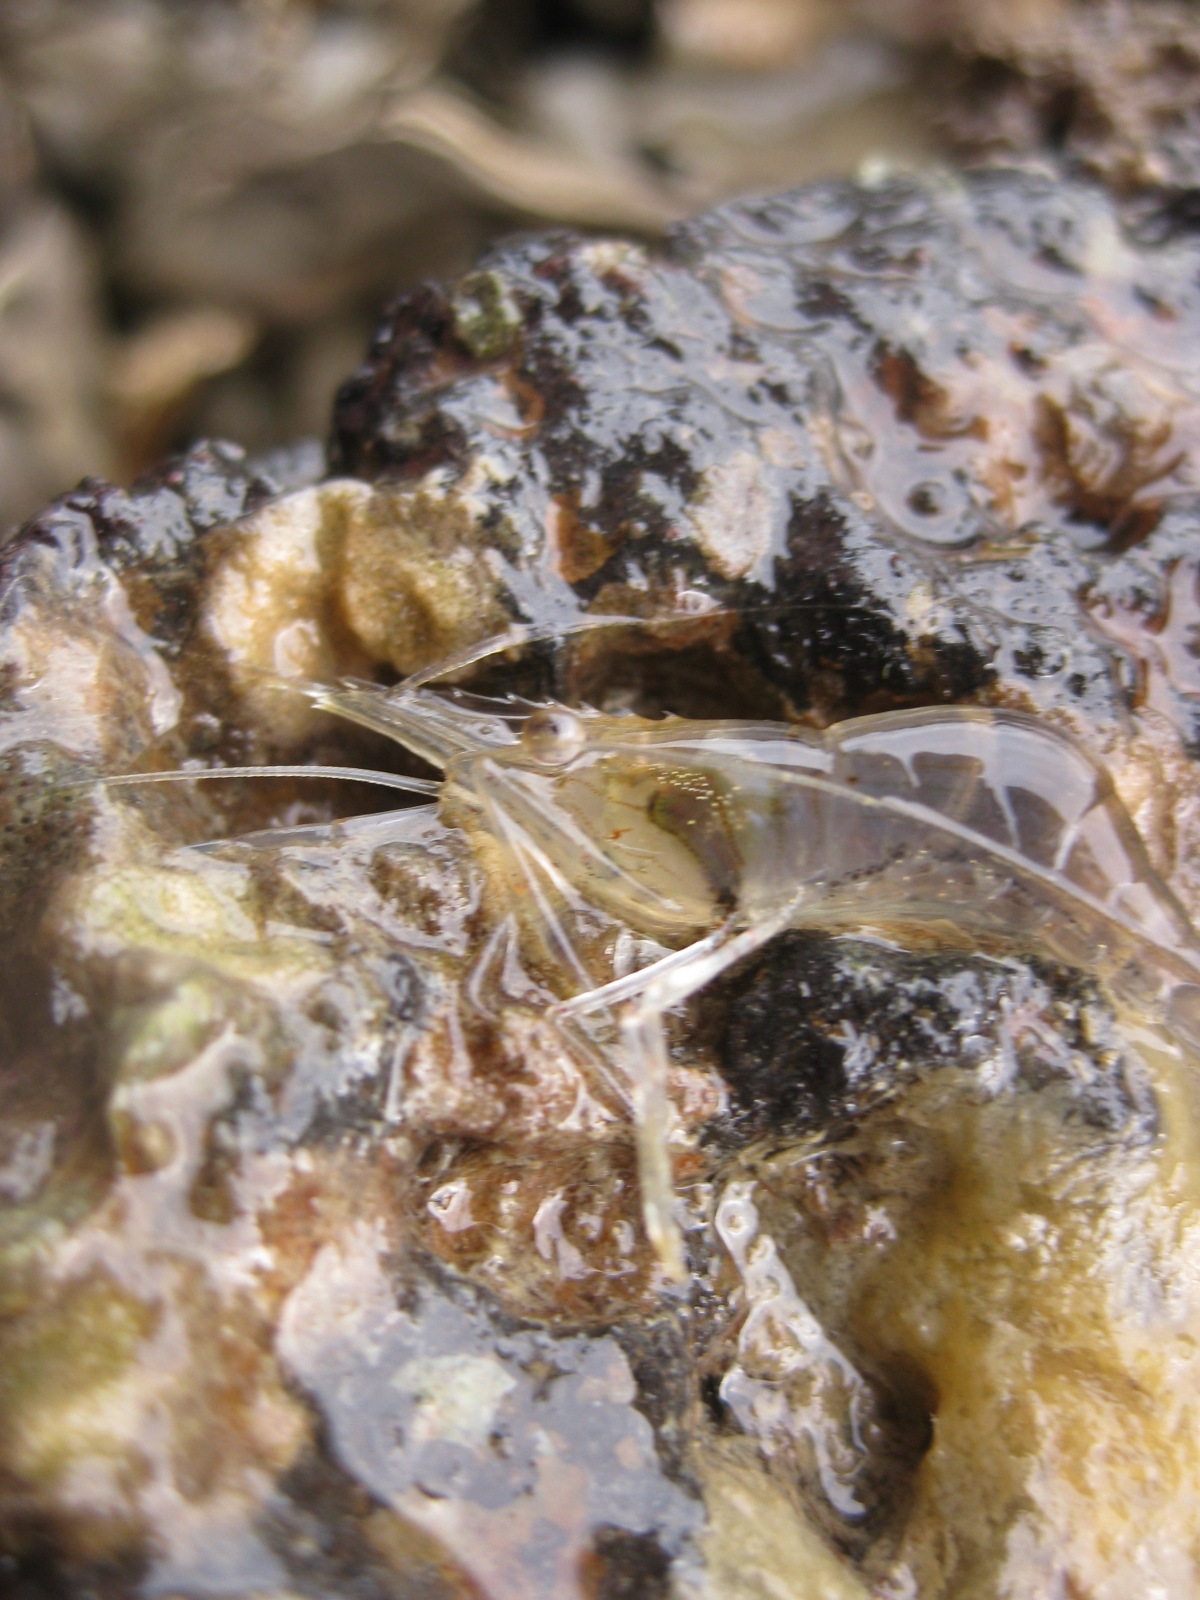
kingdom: Animalia
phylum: Arthropoda
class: Malacostraca
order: Decapoda
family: Palaemonidae
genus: Palaemon
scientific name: Palaemon affinis
